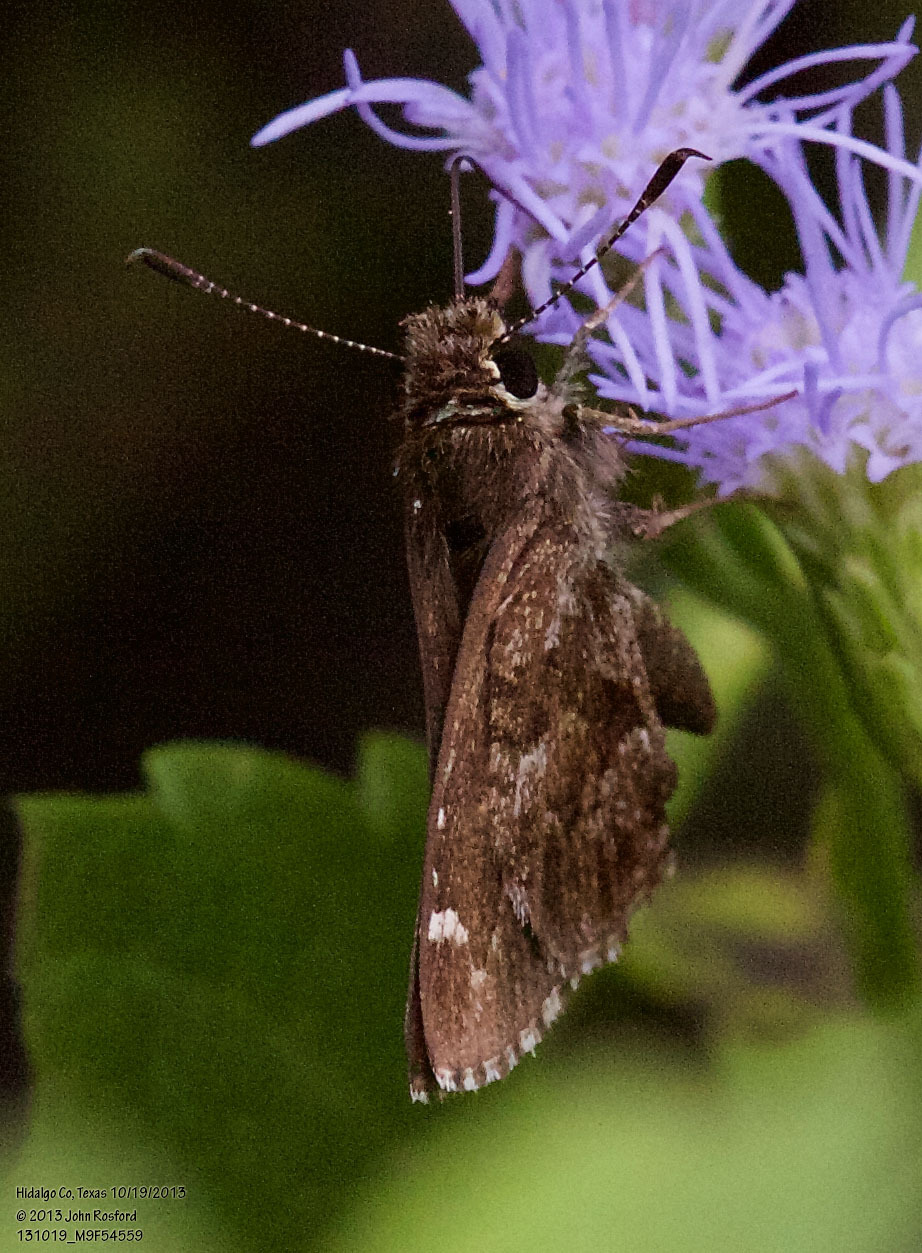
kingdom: Animalia
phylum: Arthropoda
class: Insecta
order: Lepidoptera
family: Hesperiidae
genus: Mastor
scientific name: Mastor nysa
